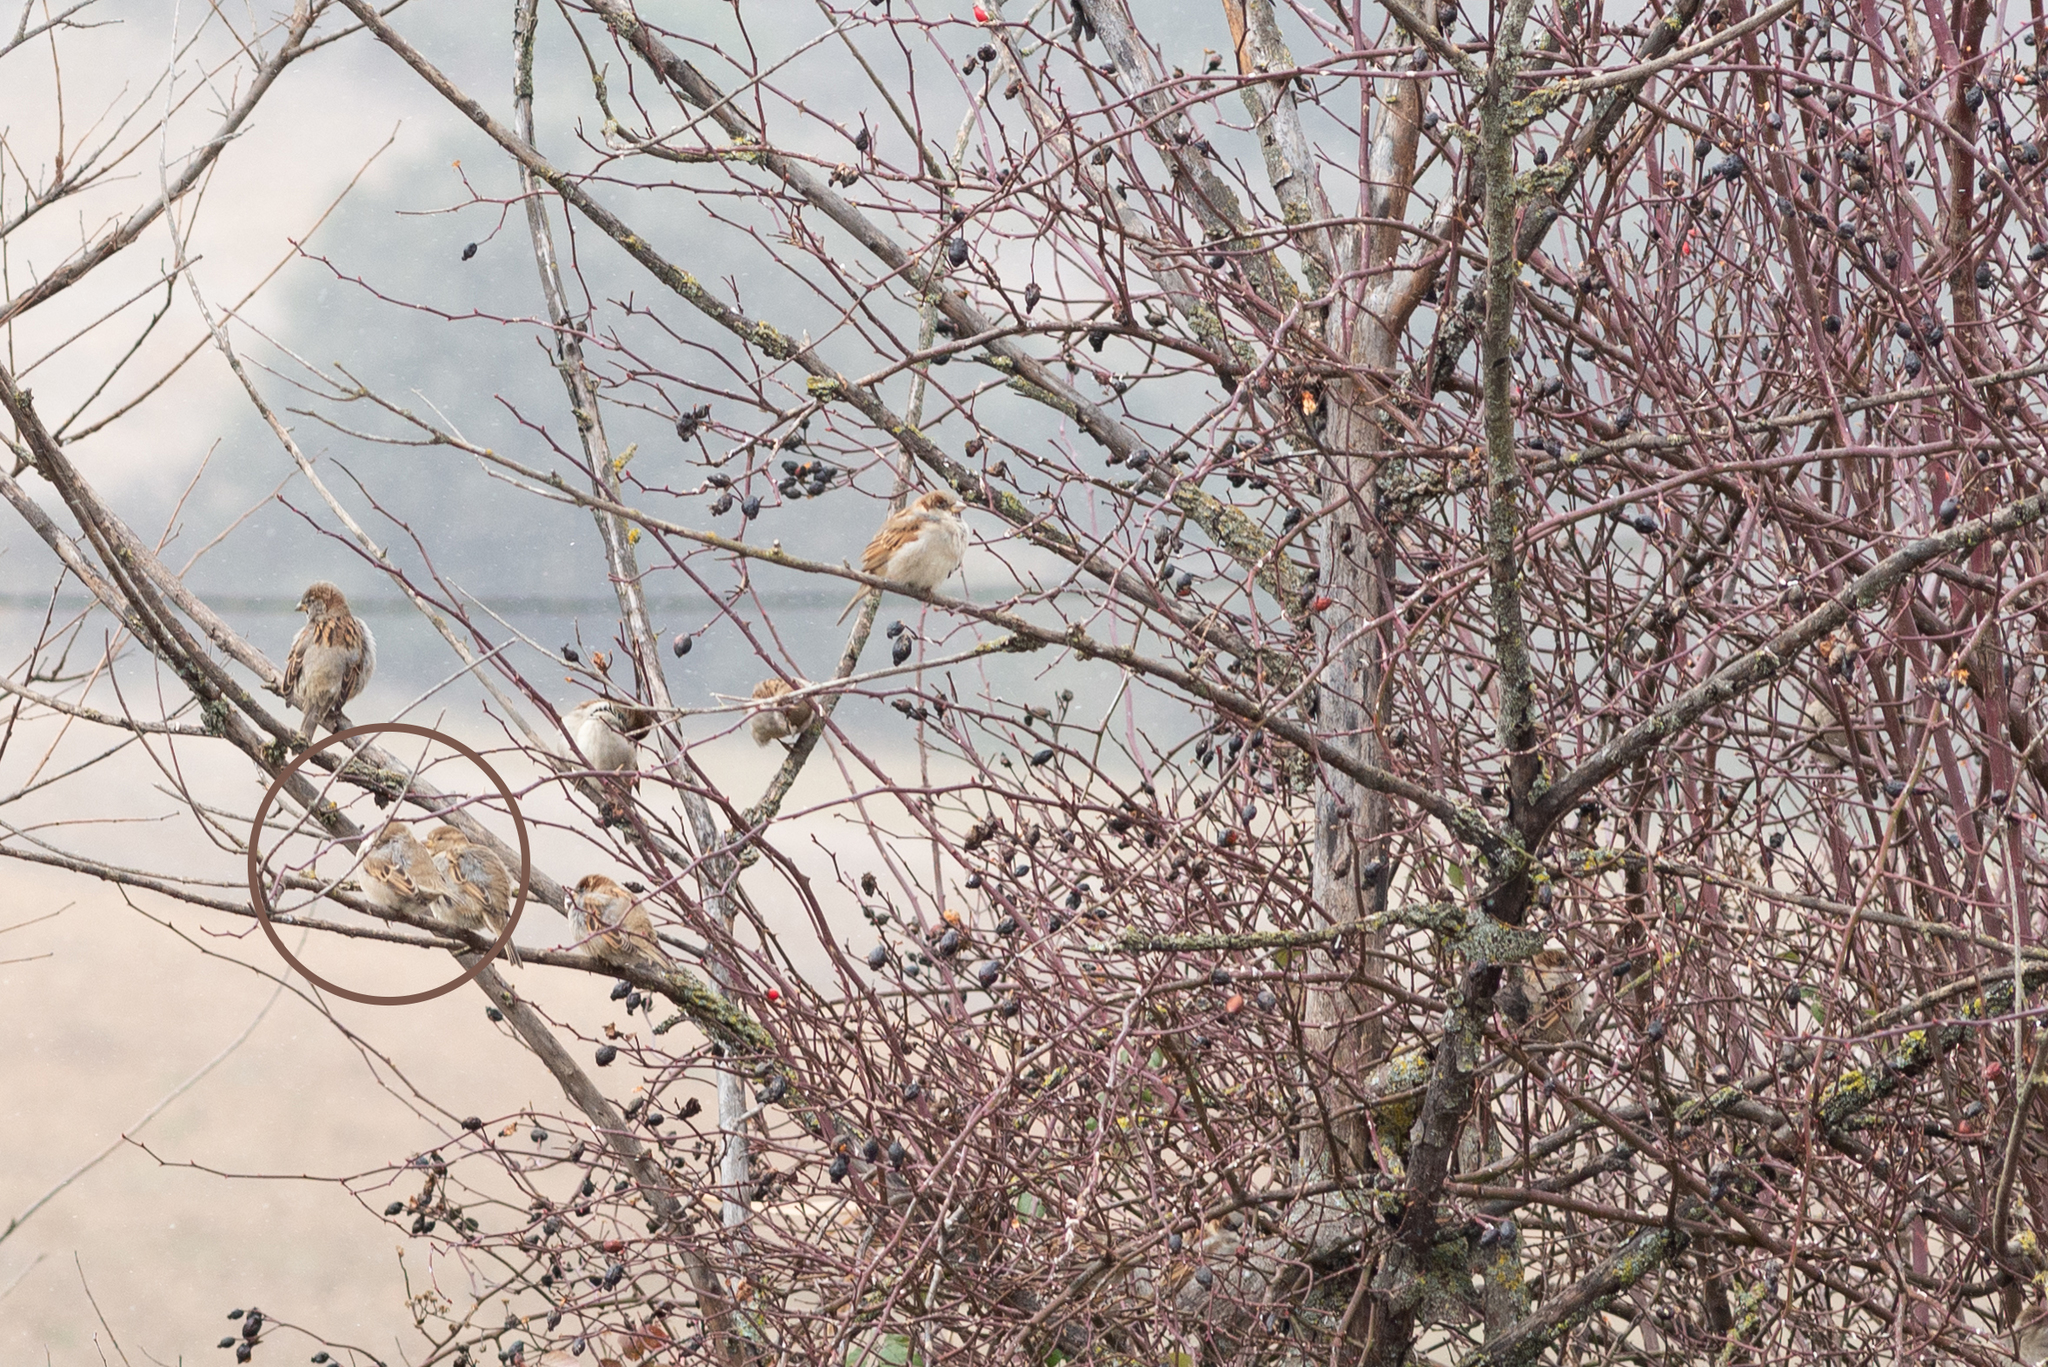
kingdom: Animalia
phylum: Chordata
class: Aves
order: Passeriformes
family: Passeridae
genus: Passer
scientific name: Passer domesticus
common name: House sparrow
